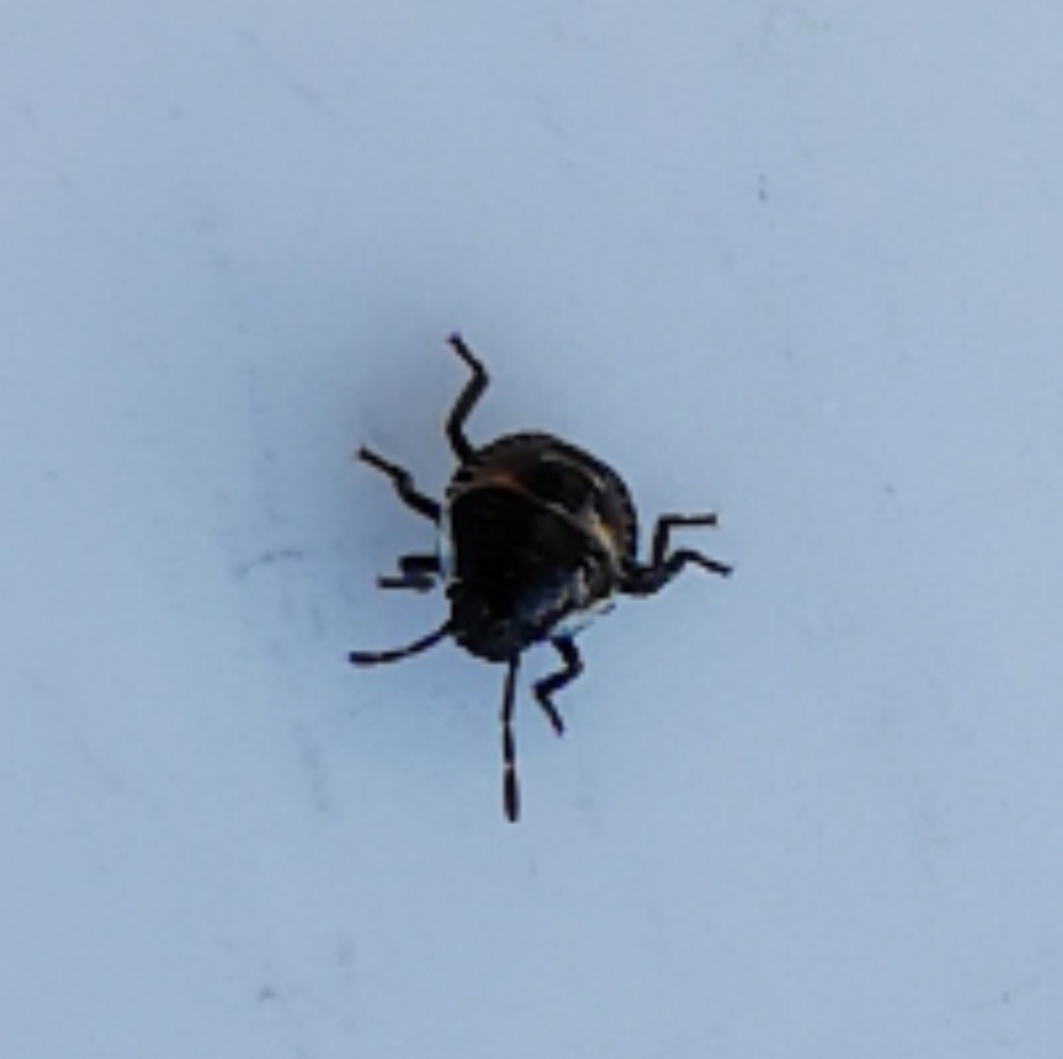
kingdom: Animalia
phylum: Arthropoda
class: Insecta
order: Hemiptera
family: Pentatomidae
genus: Palomena
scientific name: Palomena prasina
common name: Green shieldbug
